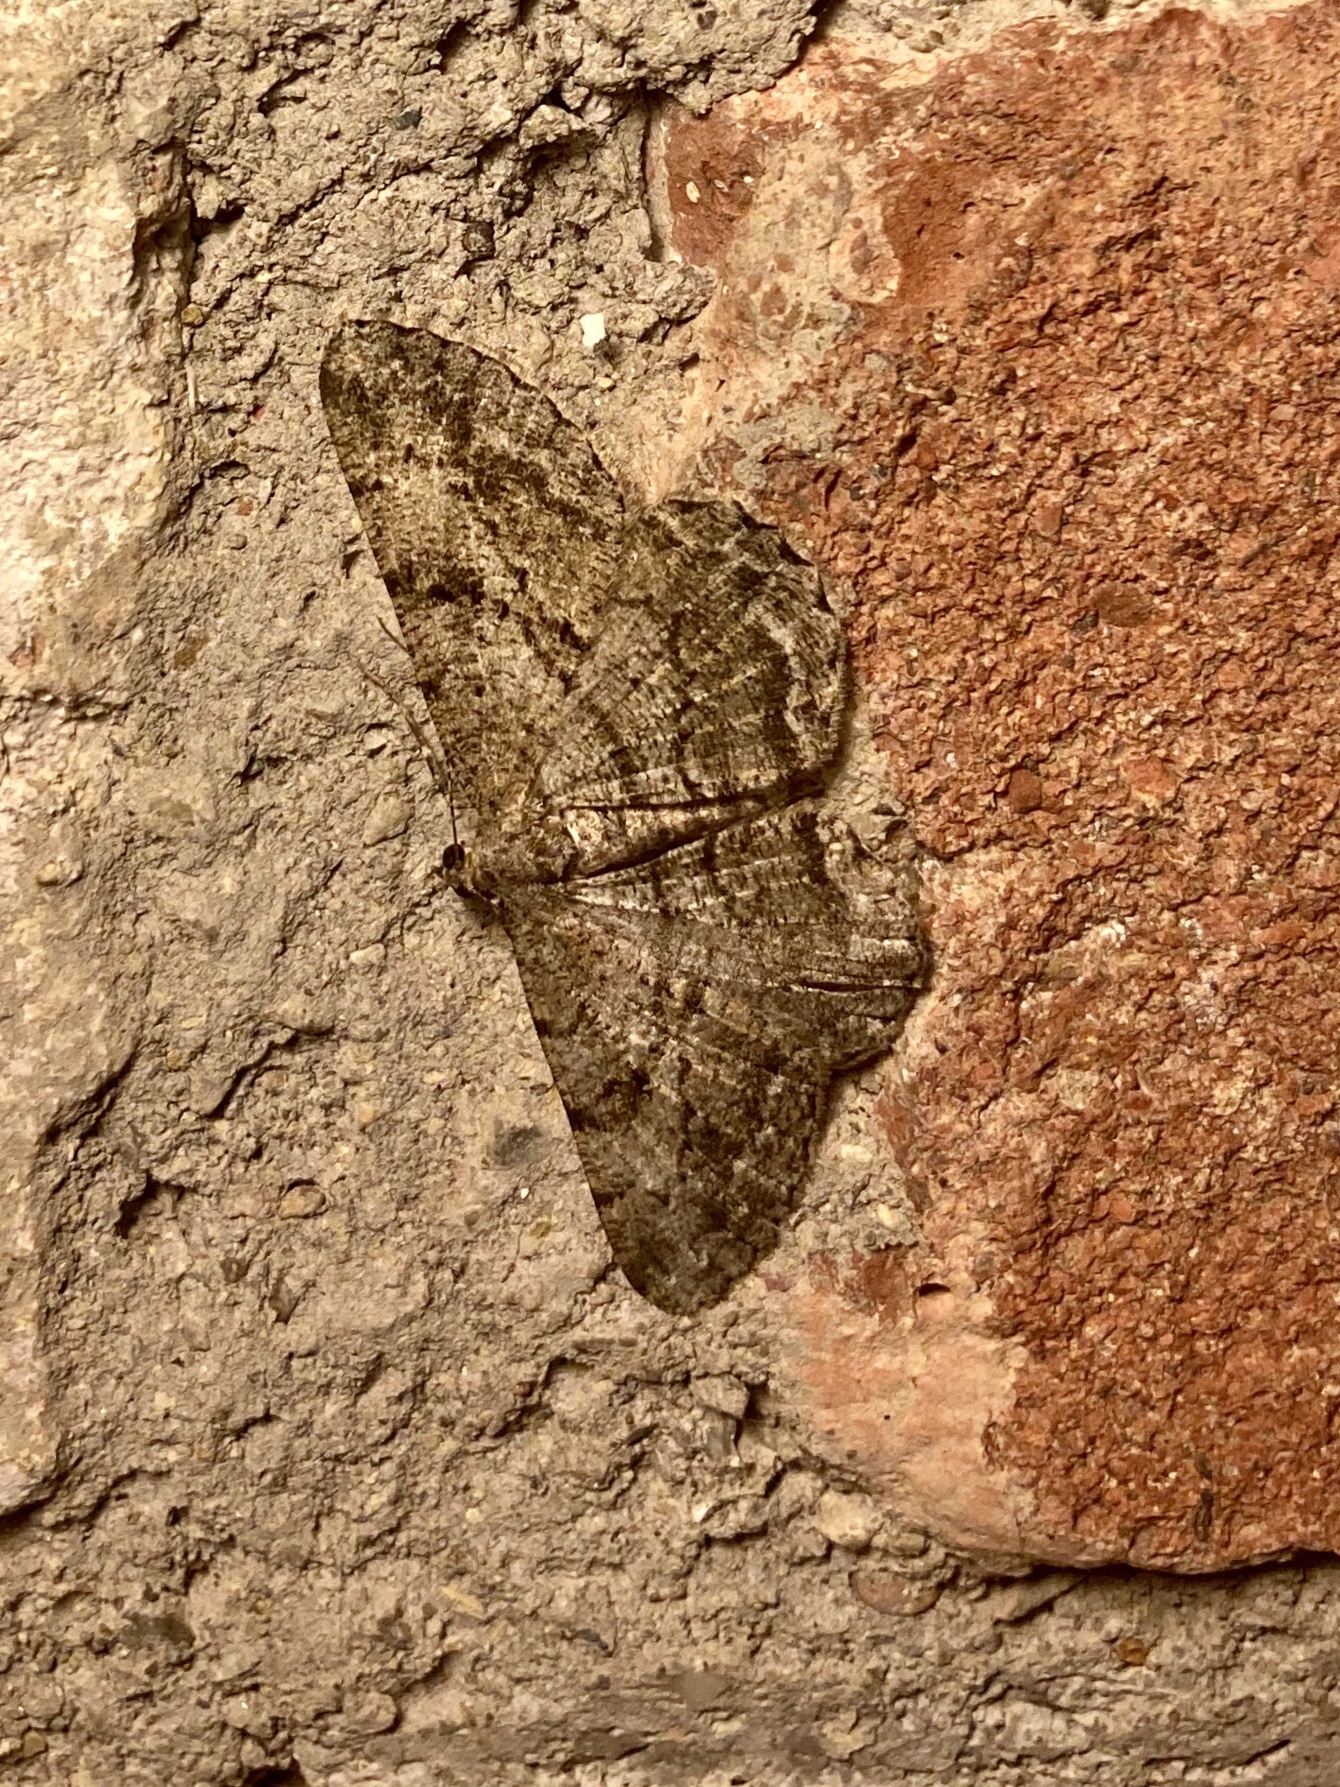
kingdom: Animalia
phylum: Arthropoda
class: Insecta
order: Lepidoptera
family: Geometridae
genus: Peribatodes
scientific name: Peribatodes rhomboidaria
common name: Willow beauty
